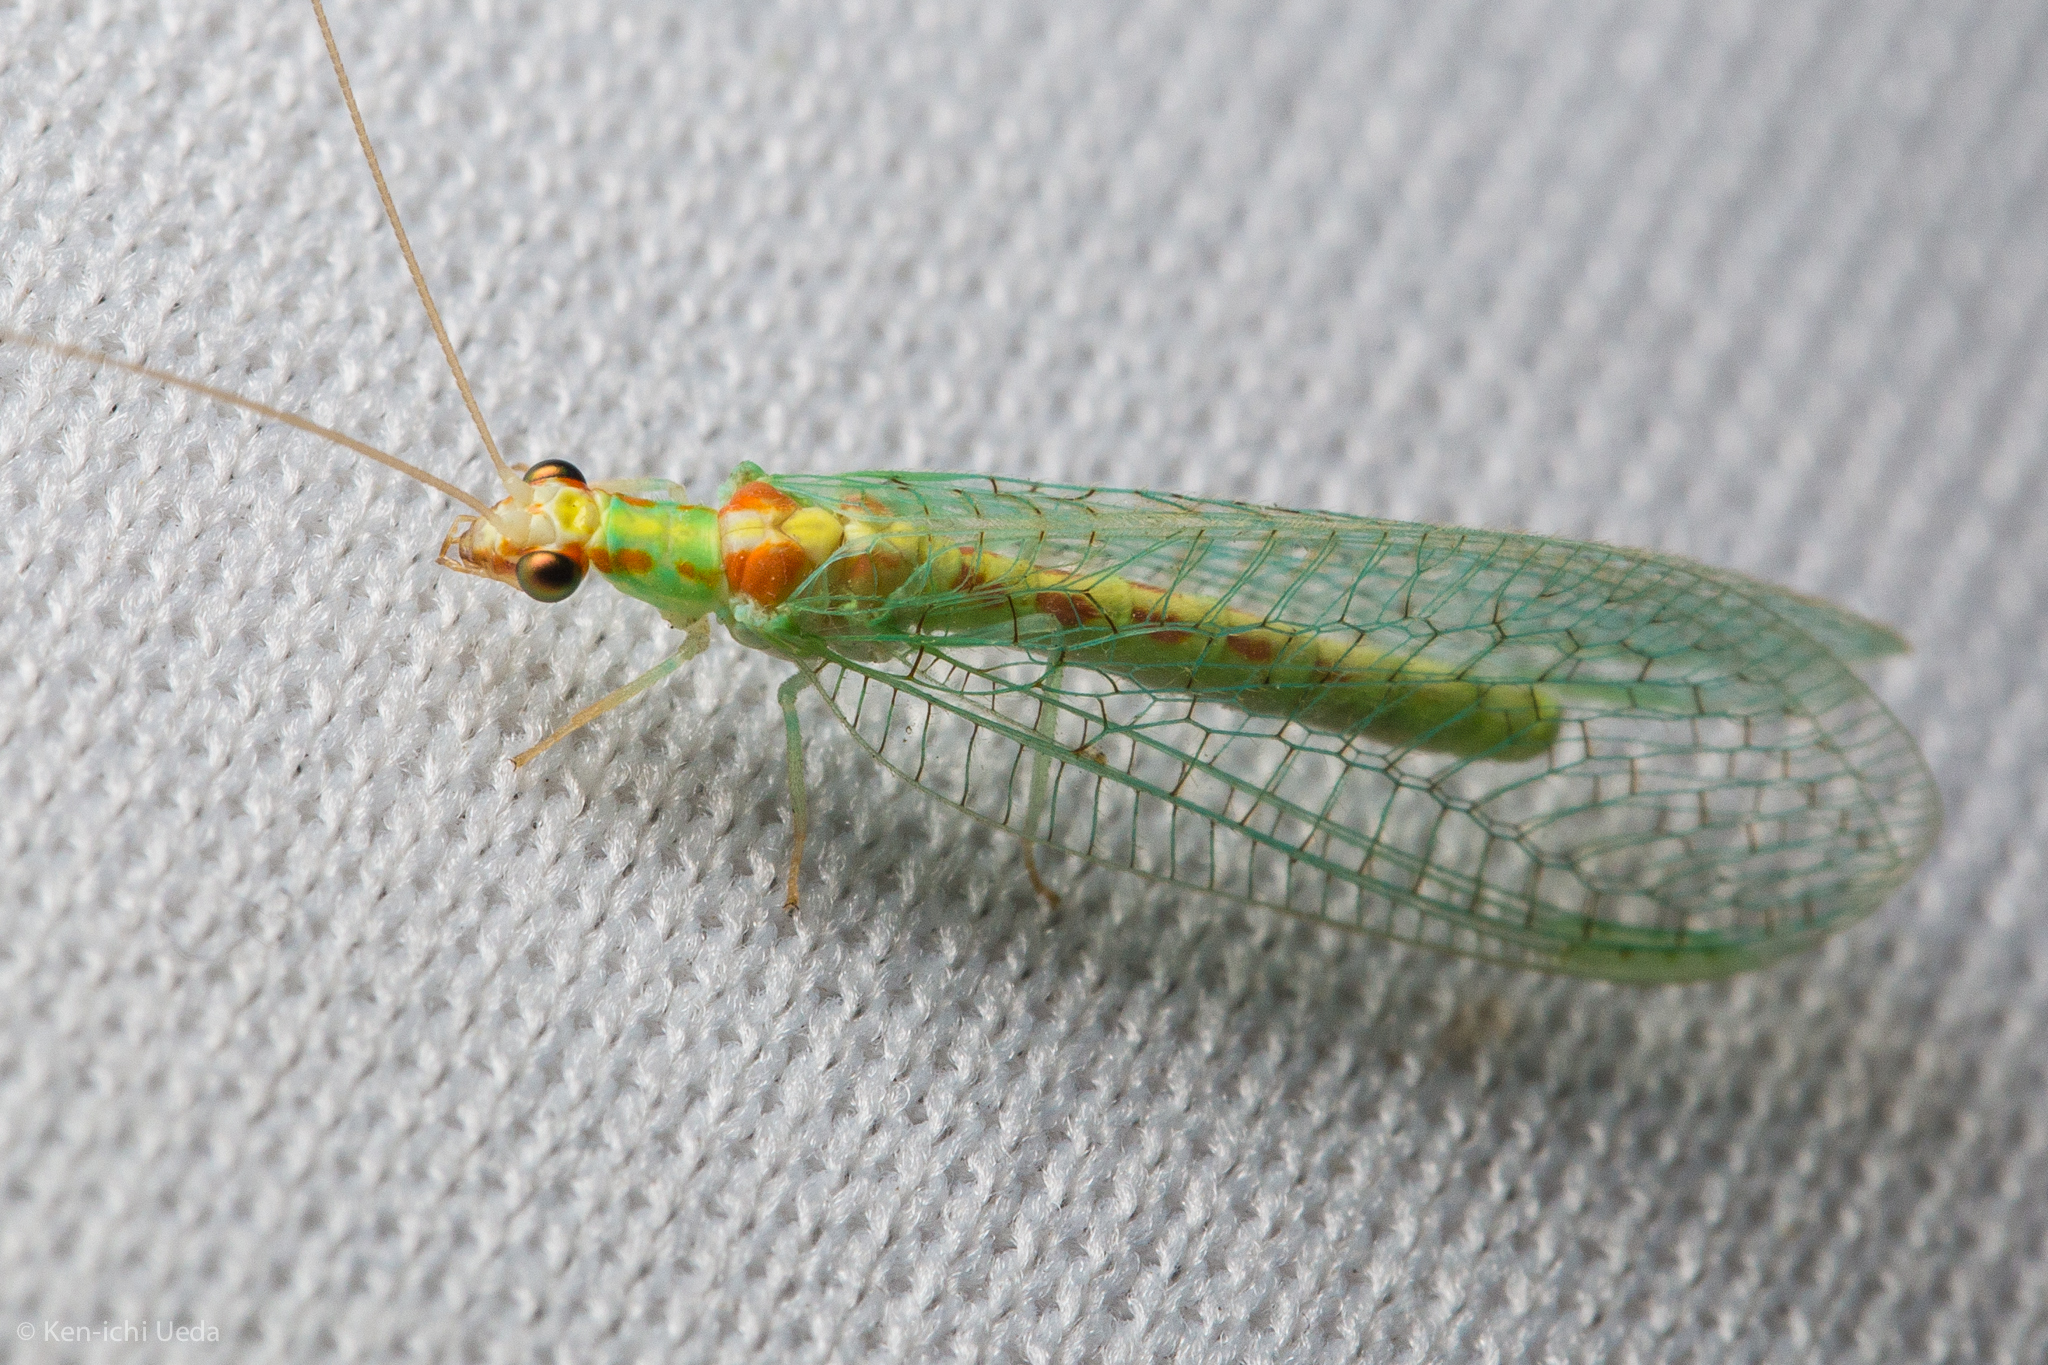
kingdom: Animalia
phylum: Arthropoda
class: Insecta
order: Neuroptera
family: Chrysopidae
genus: Chrysopa
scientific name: Chrysopa quadripunctata
